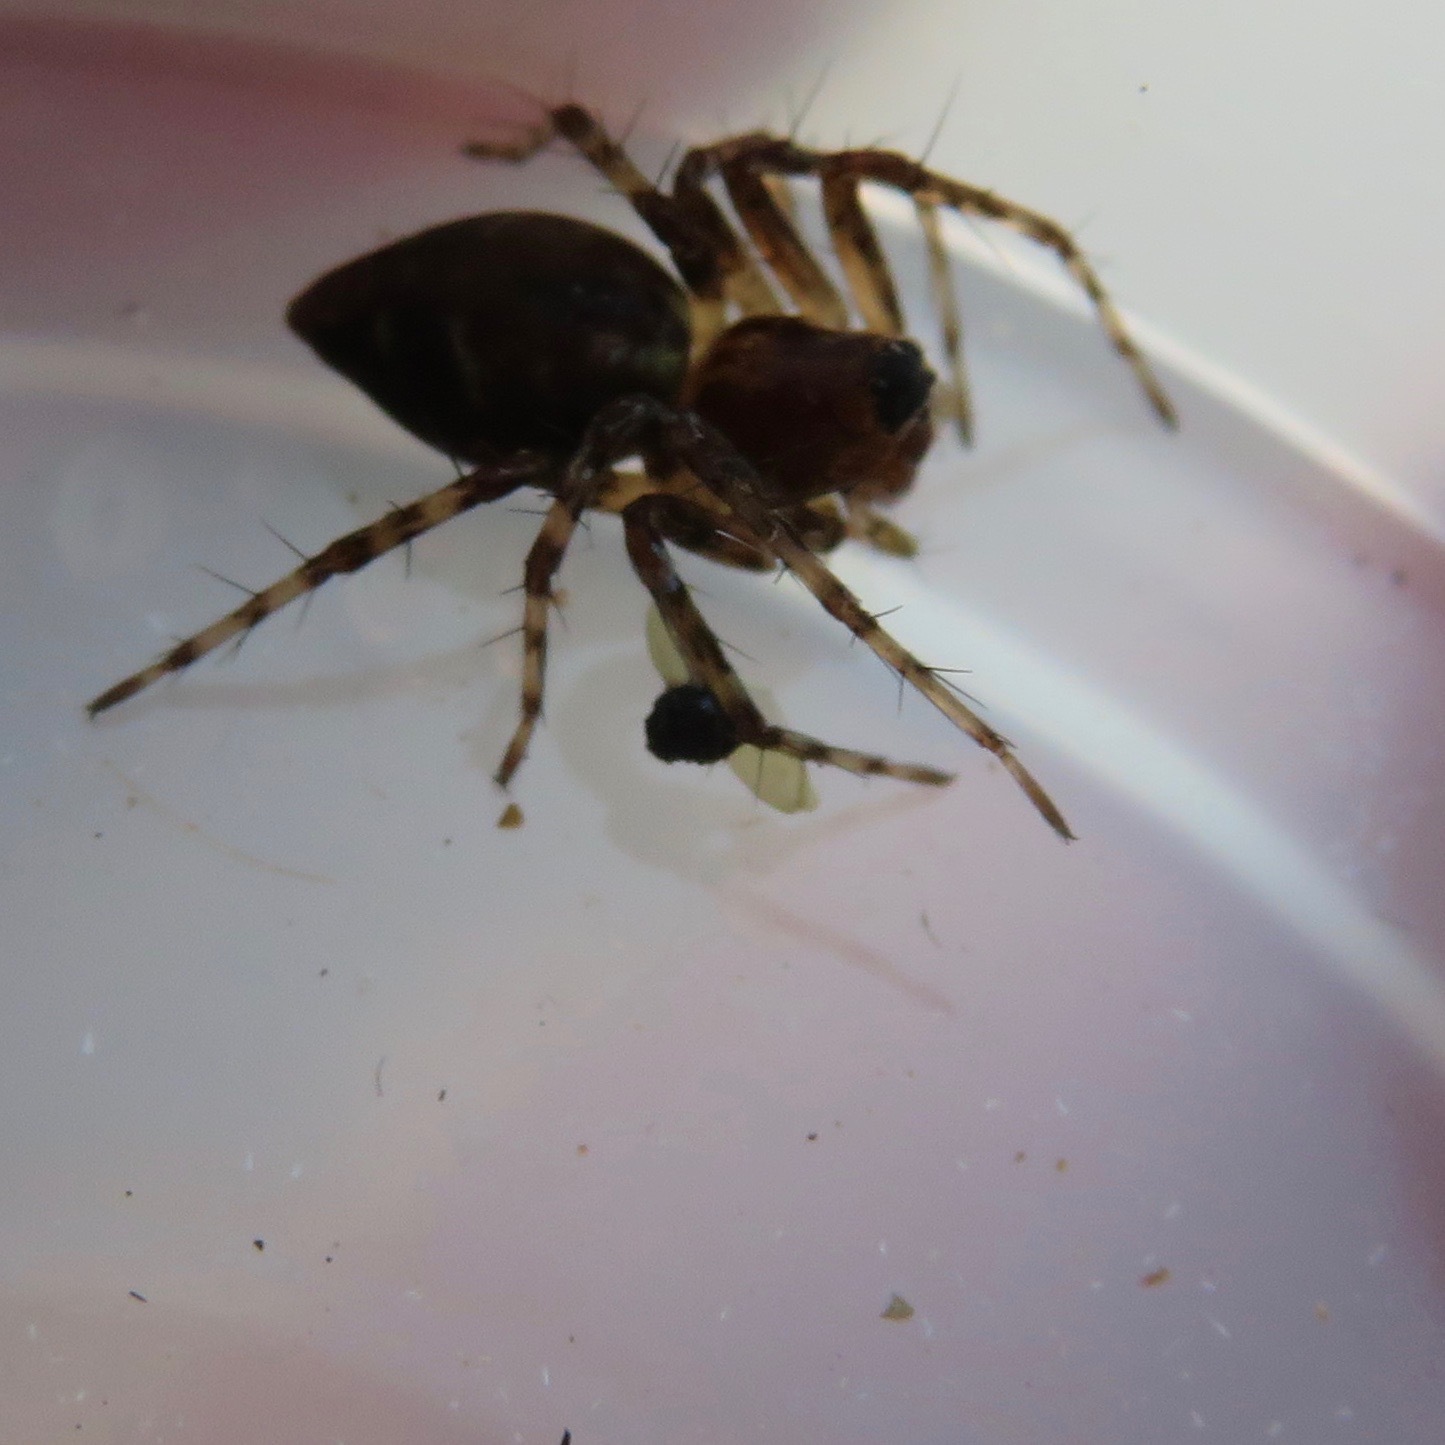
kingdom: Animalia
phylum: Arthropoda
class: Arachnida
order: Araneae
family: Oxyopidae
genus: Oxyopes
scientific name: Oxyopes scalaris
